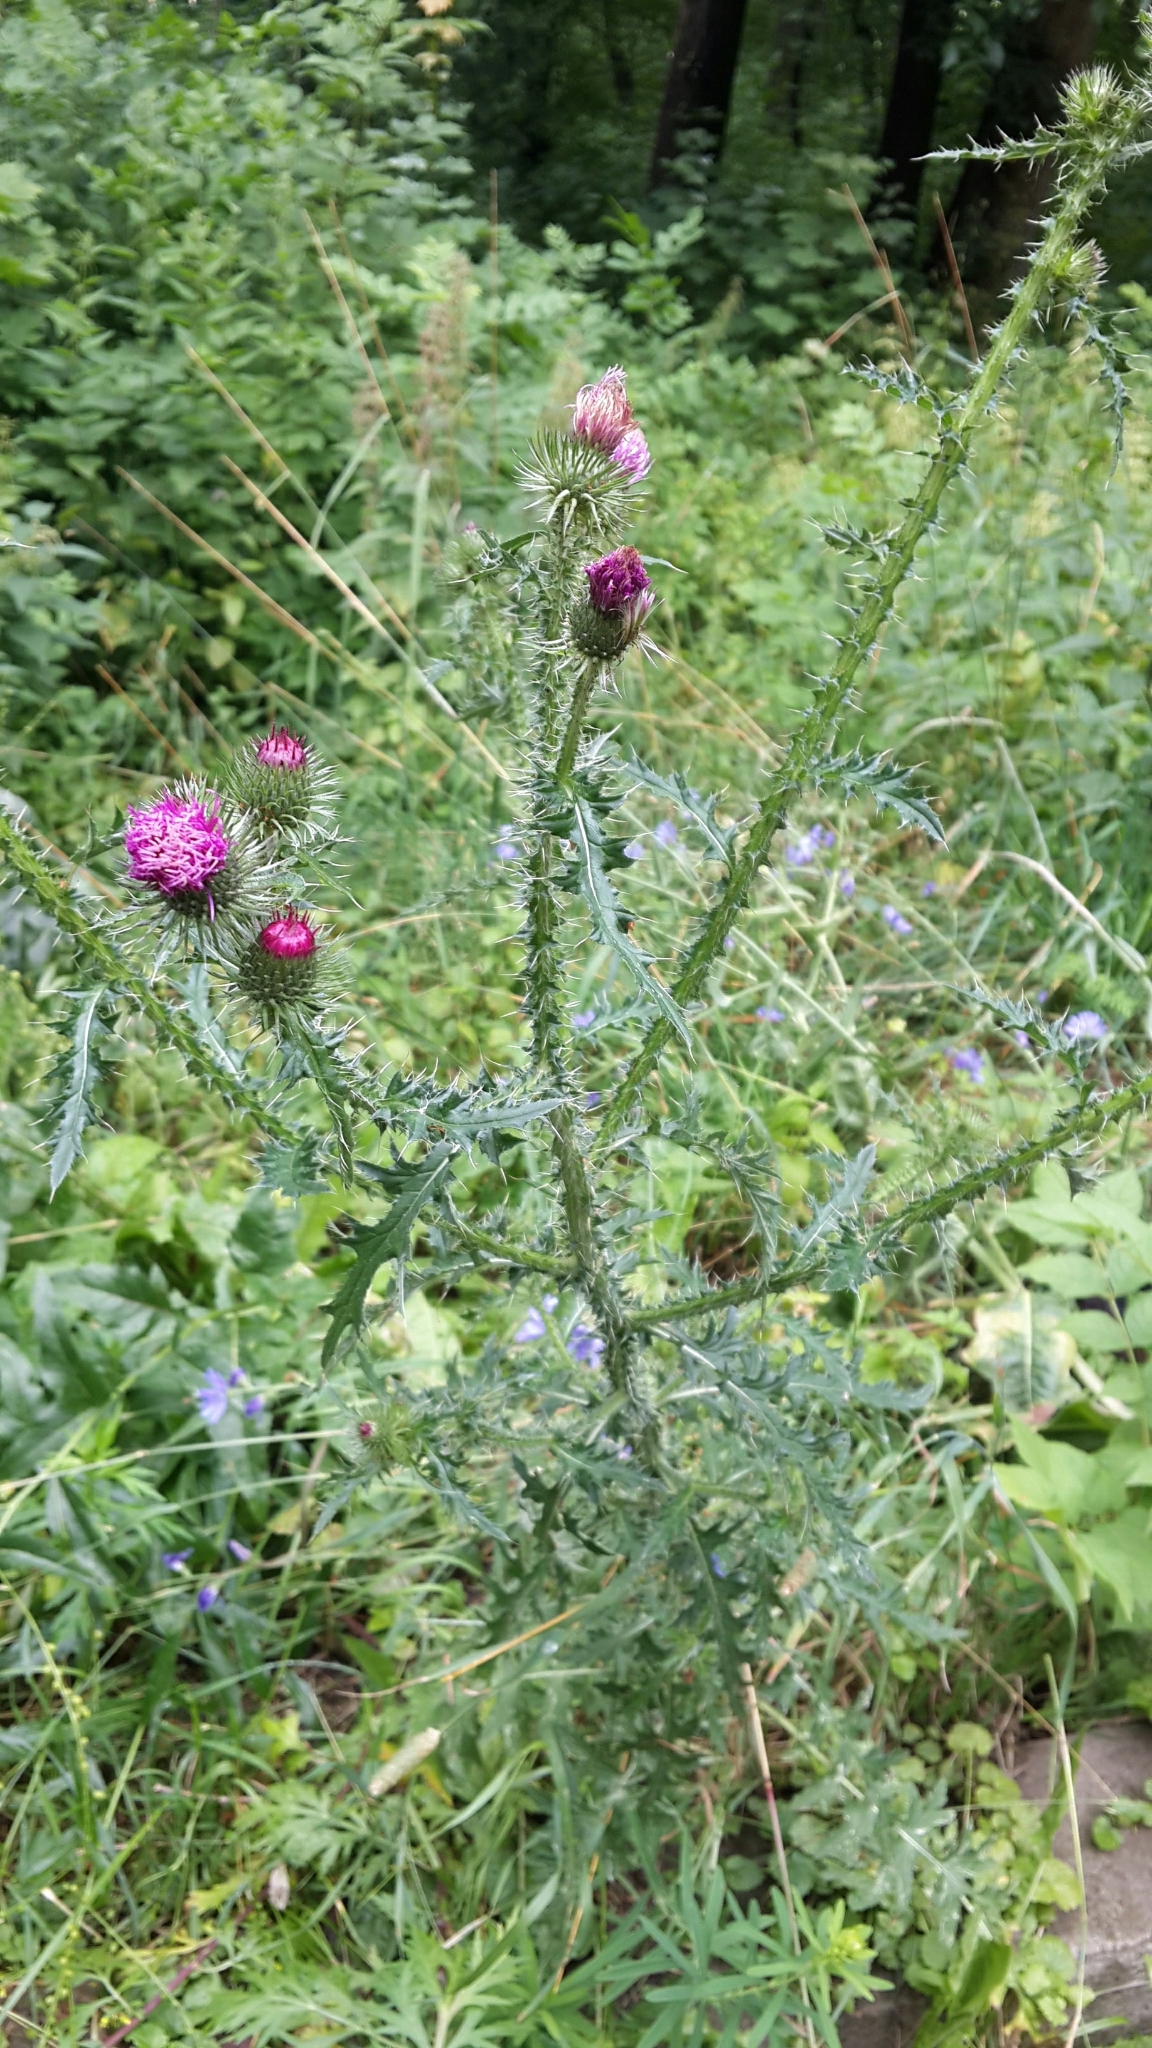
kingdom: Plantae
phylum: Tracheophyta
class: Magnoliopsida
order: Asterales
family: Asteraceae
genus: Carduus
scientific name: Carduus acanthoides
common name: Plumeless thistle
